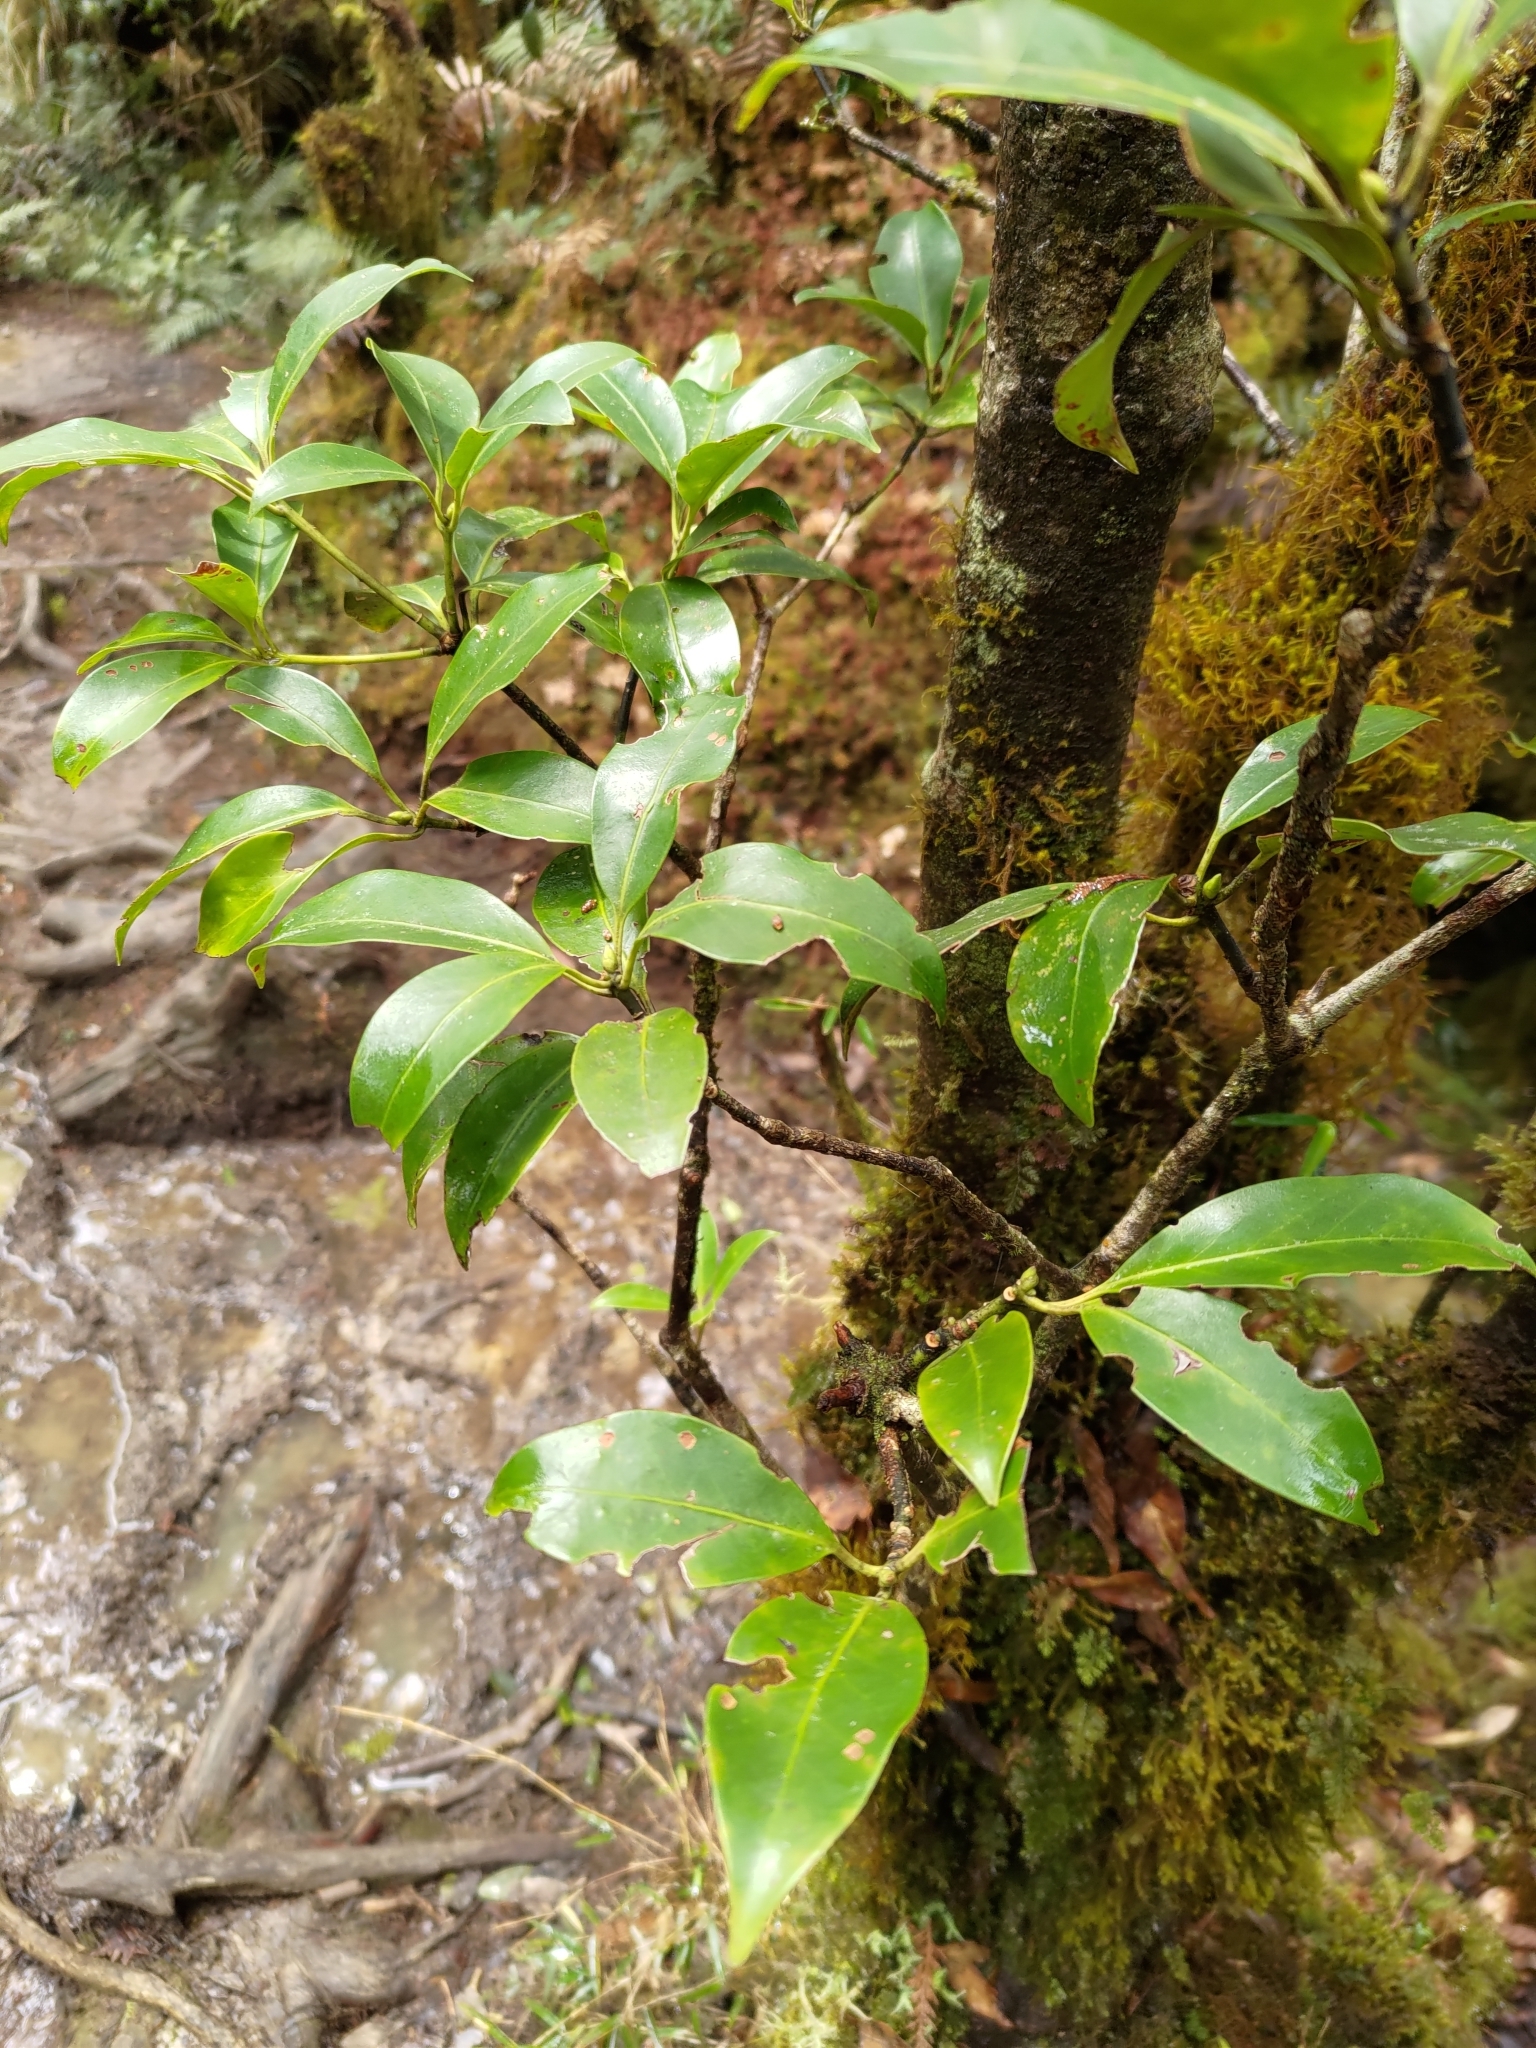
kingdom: Plantae
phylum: Tracheophyta
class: Magnoliopsida
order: Austrobaileyales
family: Schisandraceae
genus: Illicium
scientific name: Illicium anisatum
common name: Sacred anisetree
